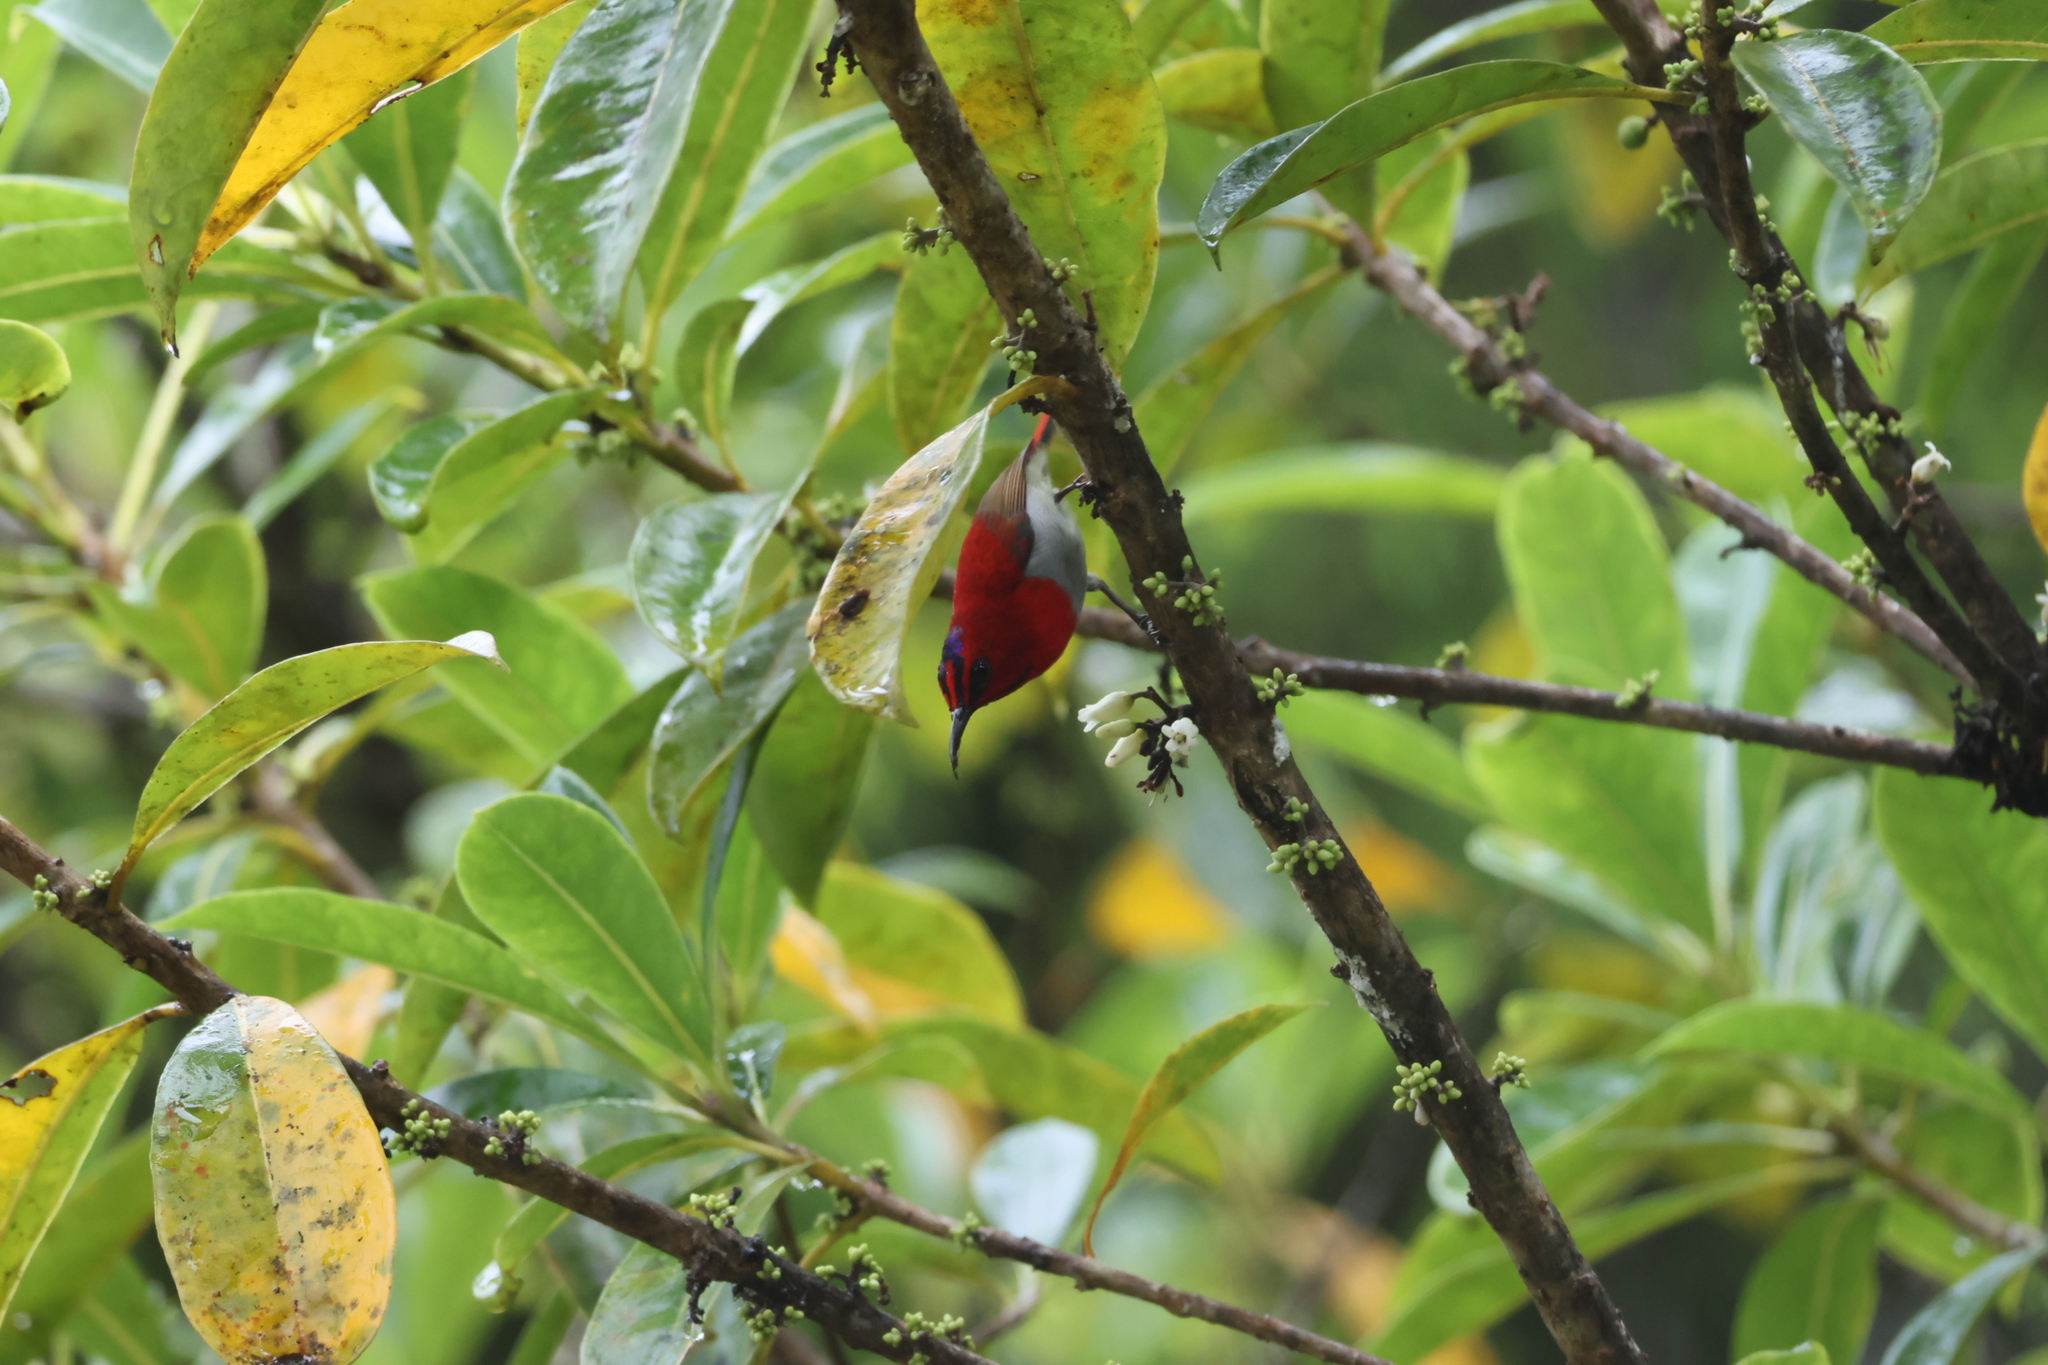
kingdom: Animalia
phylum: Chordata
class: Aves
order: Passeriformes
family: Nectariniidae
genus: Aethopyga
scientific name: Aethopyga temminckii
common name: Temminck's sunbird
